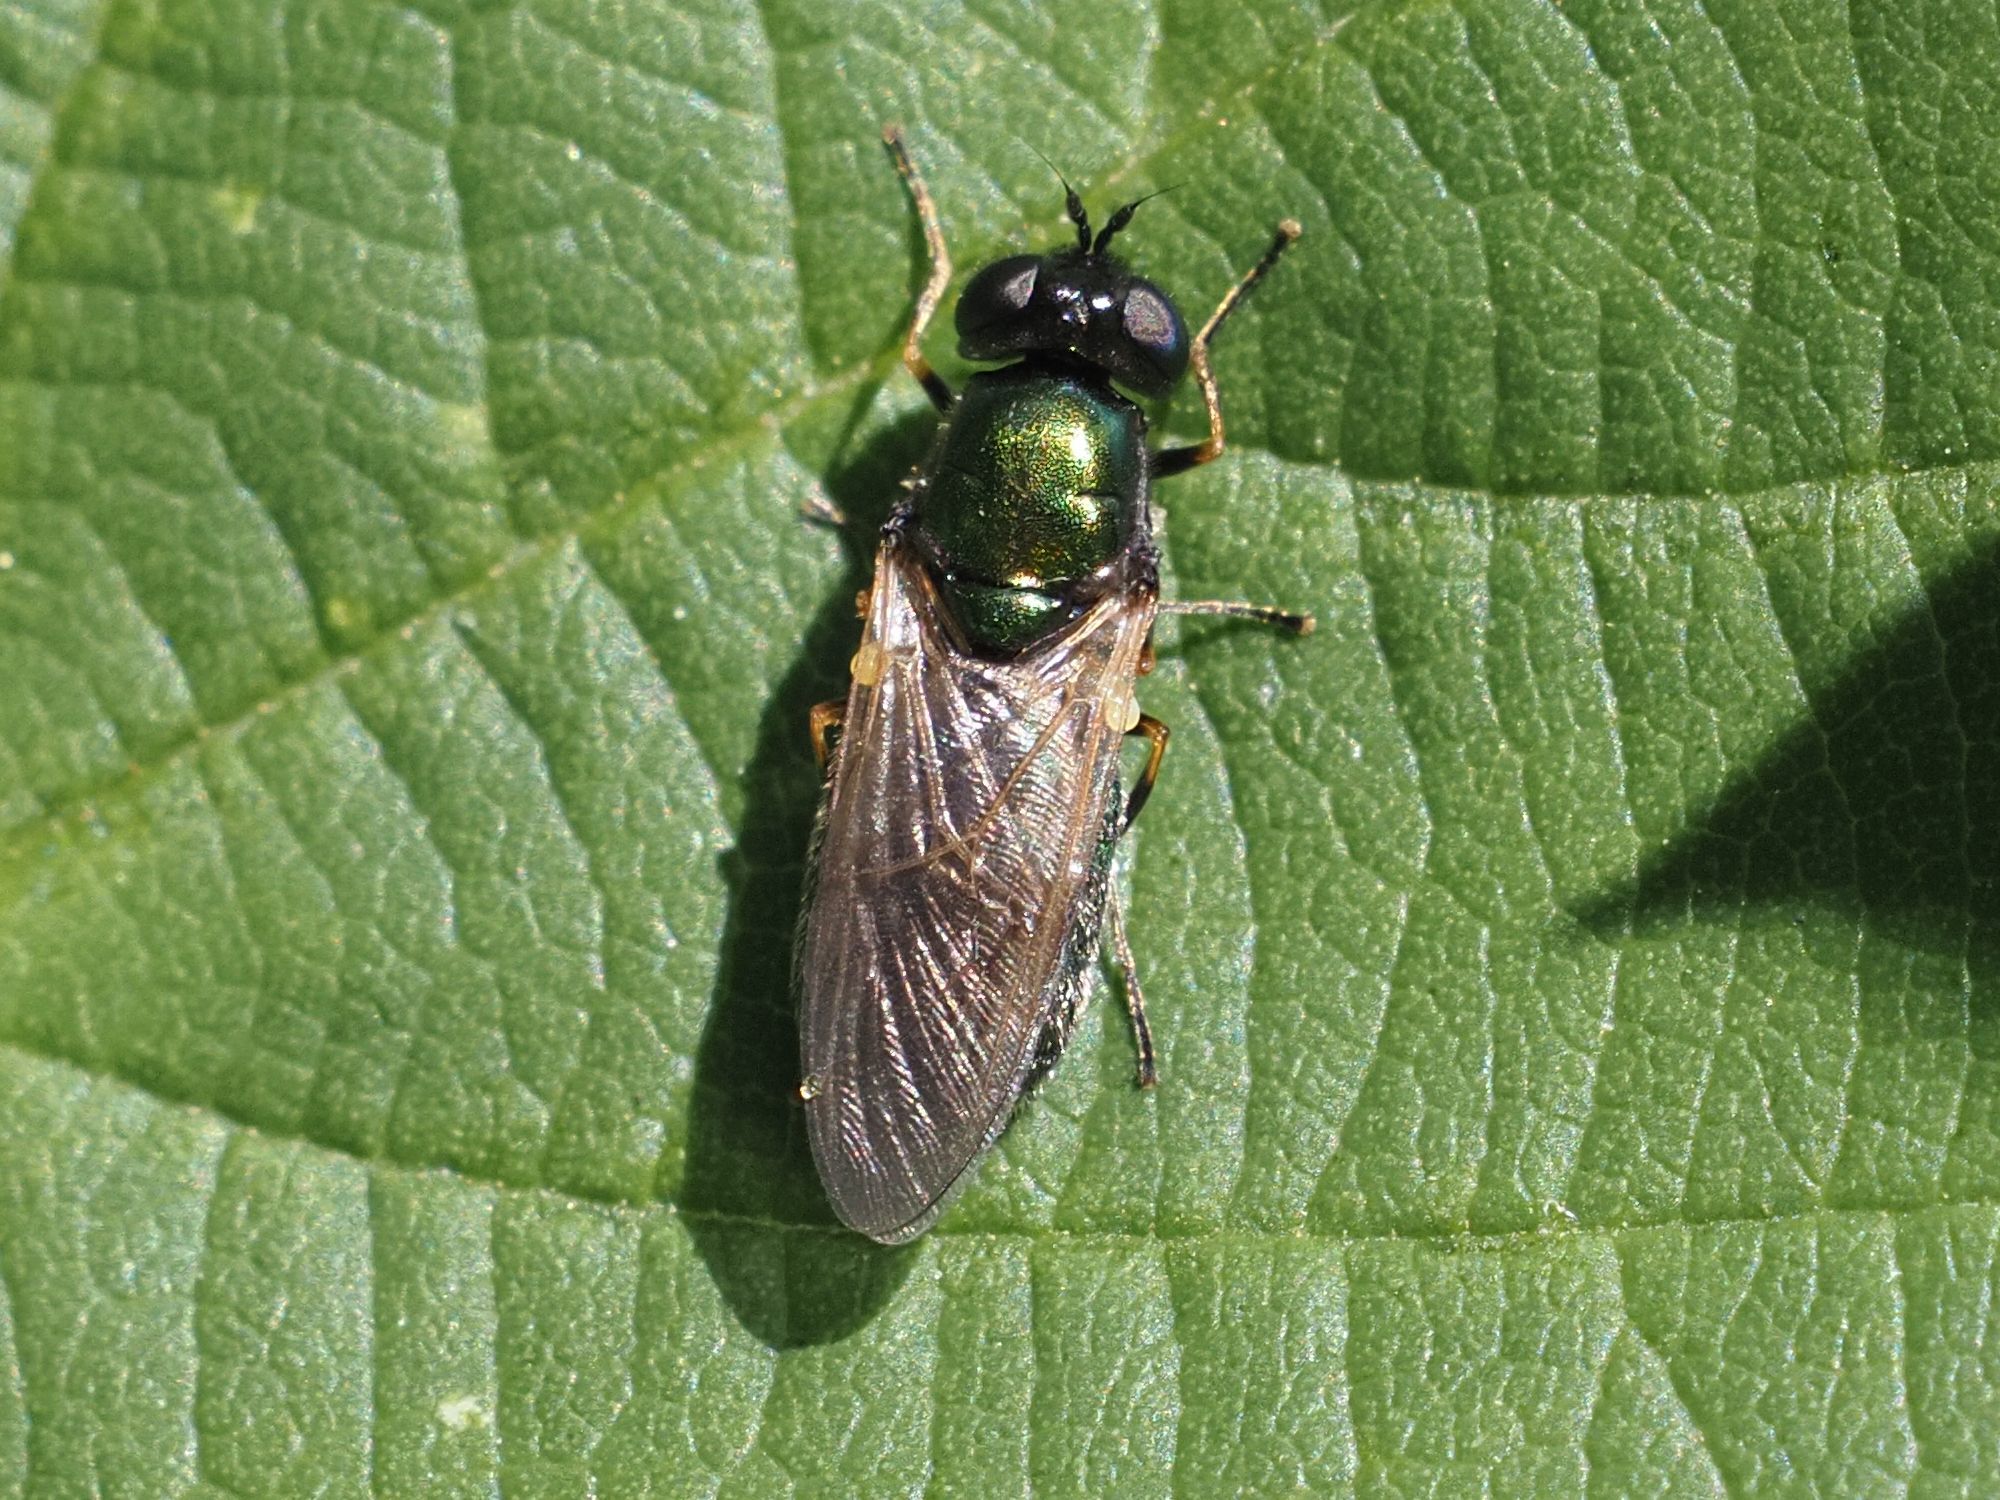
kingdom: Animalia
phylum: Arthropoda
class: Insecta
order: Diptera
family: Stratiomyidae
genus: Chloromyia
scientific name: Chloromyia formosa
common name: Soldier fly
